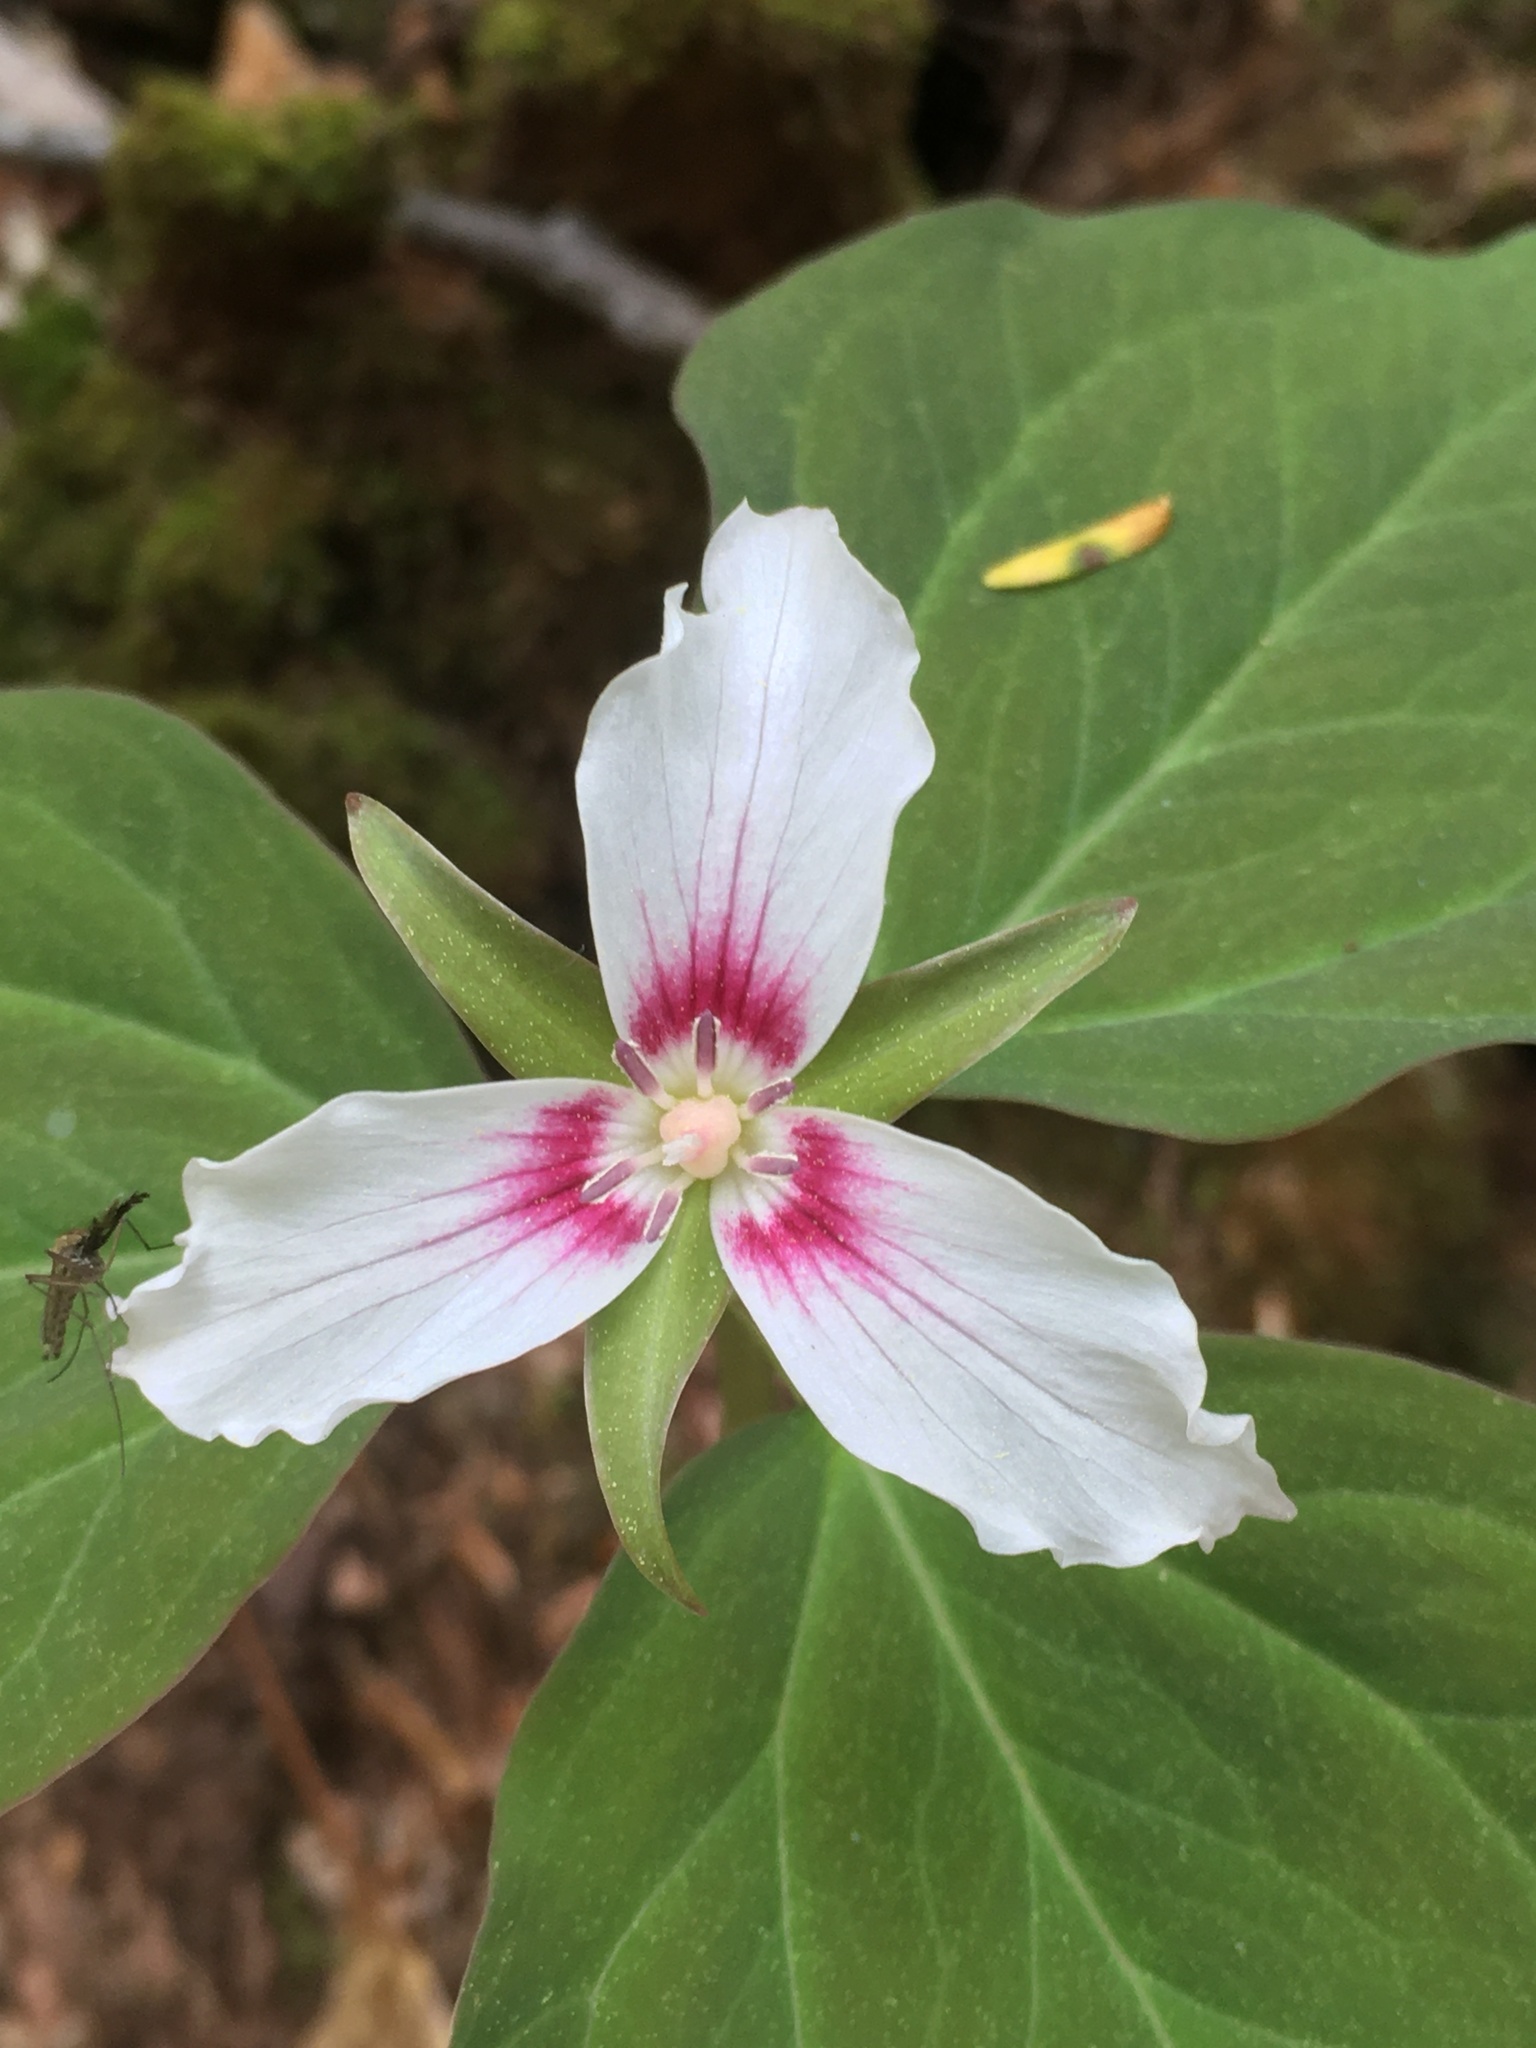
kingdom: Plantae
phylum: Tracheophyta
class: Liliopsida
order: Liliales
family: Melanthiaceae
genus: Trillium
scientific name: Trillium undulatum
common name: Paint trillium
